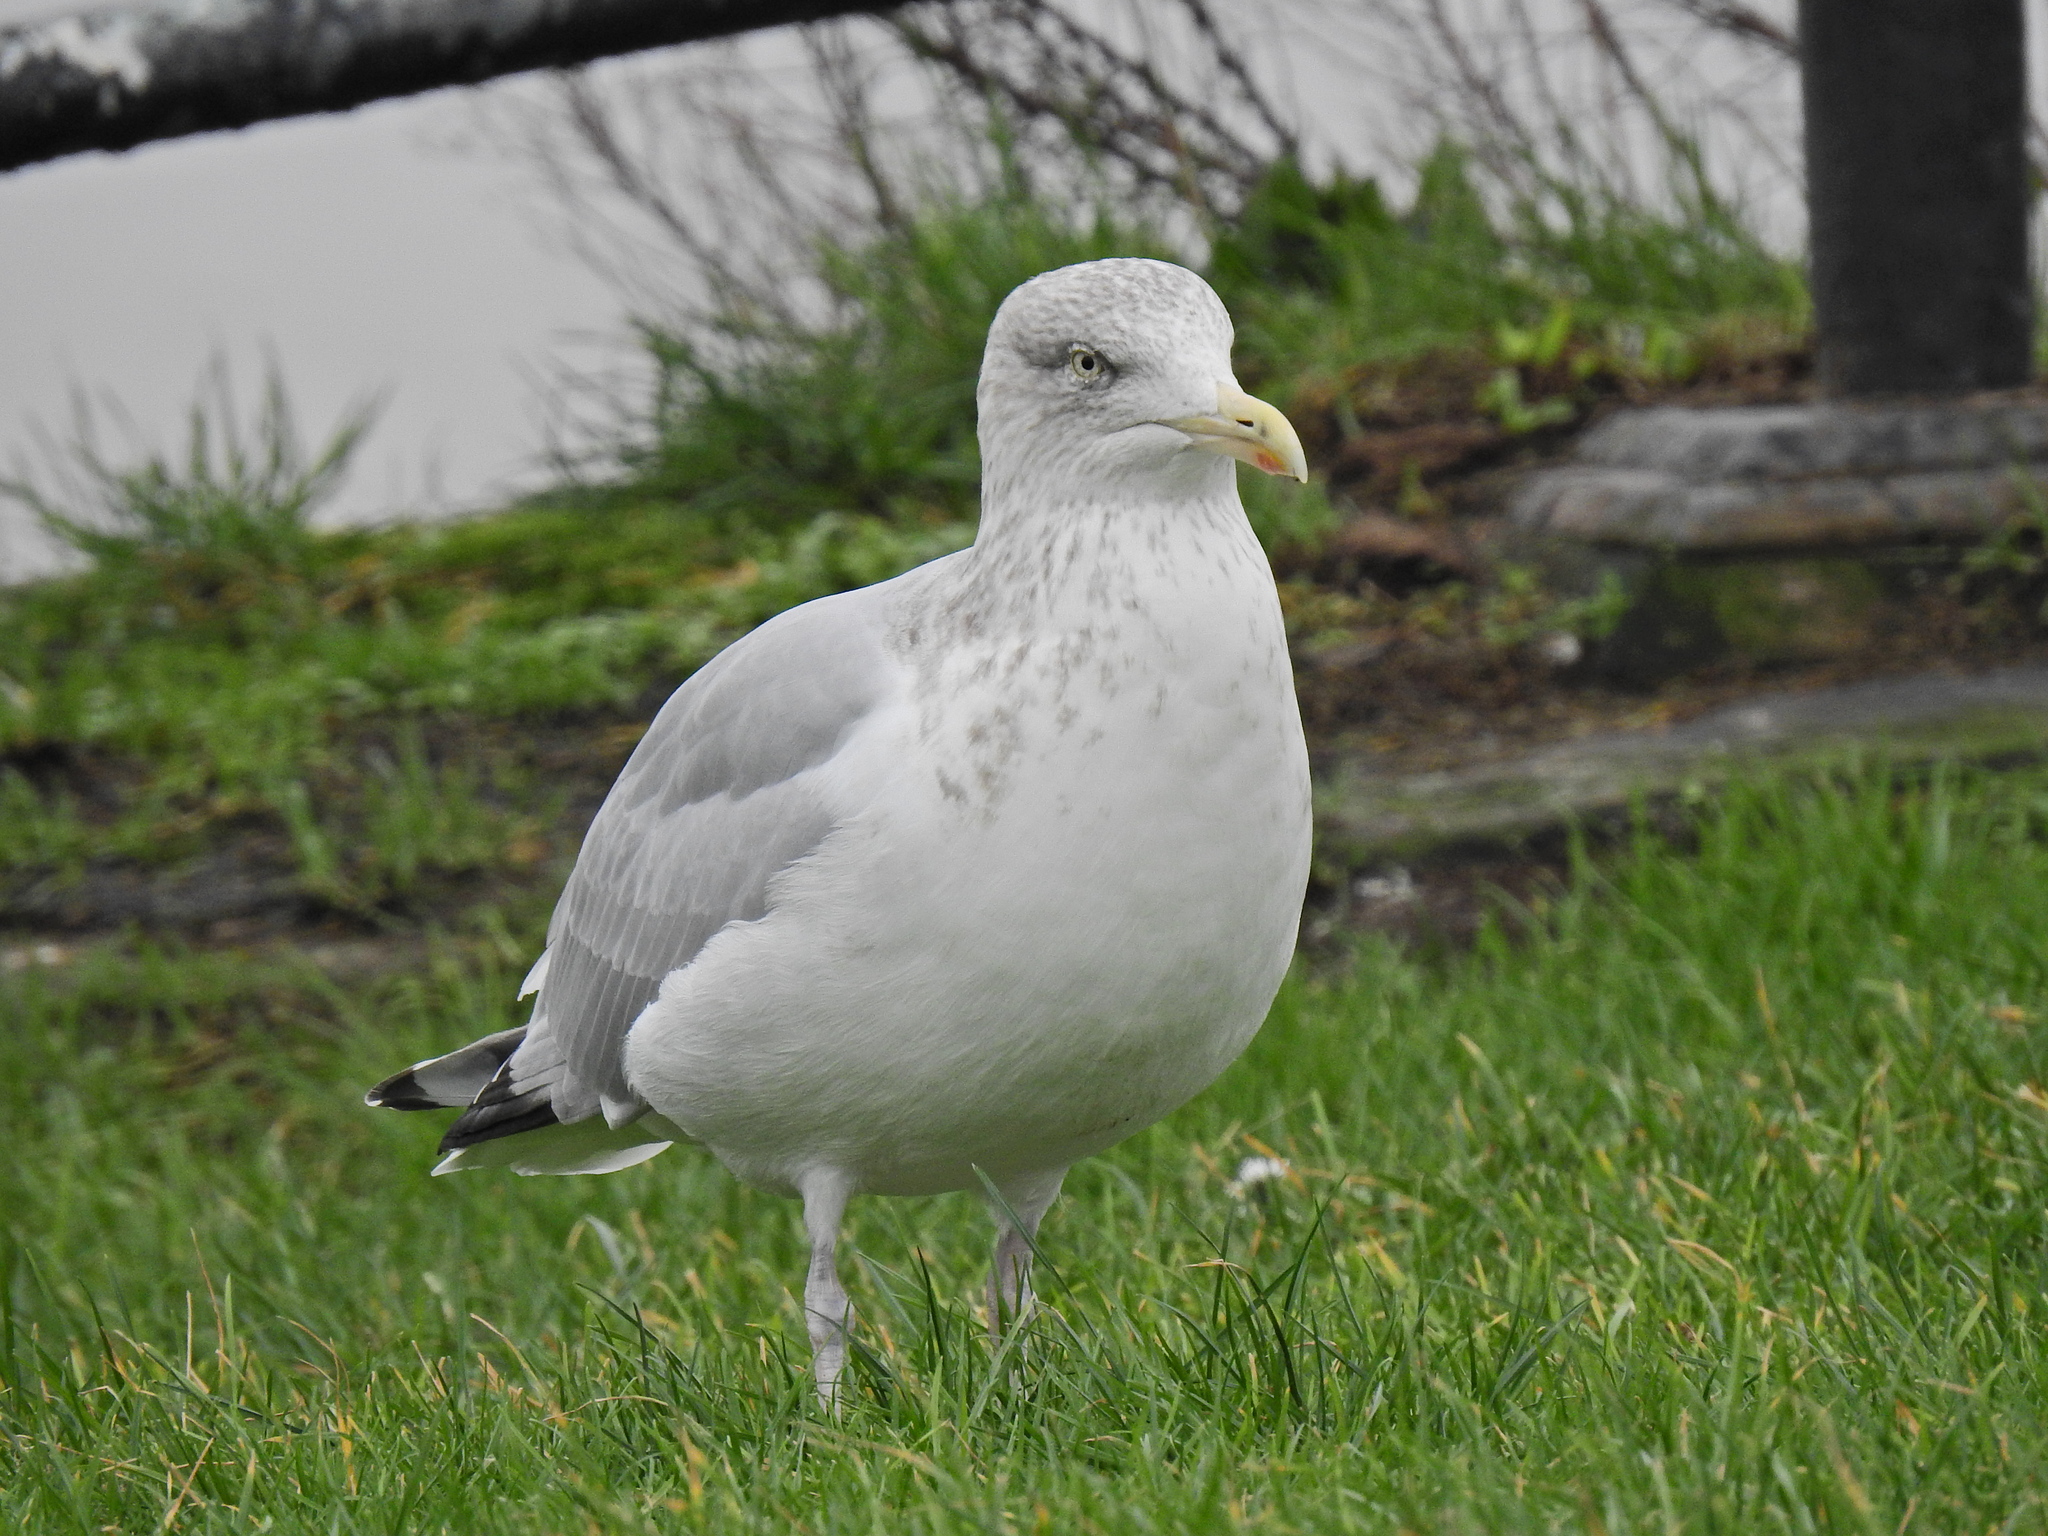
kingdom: Animalia
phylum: Chordata
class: Aves
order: Charadriiformes
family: Laridae
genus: Larus
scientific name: Larus argentatus
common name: Herring gull
